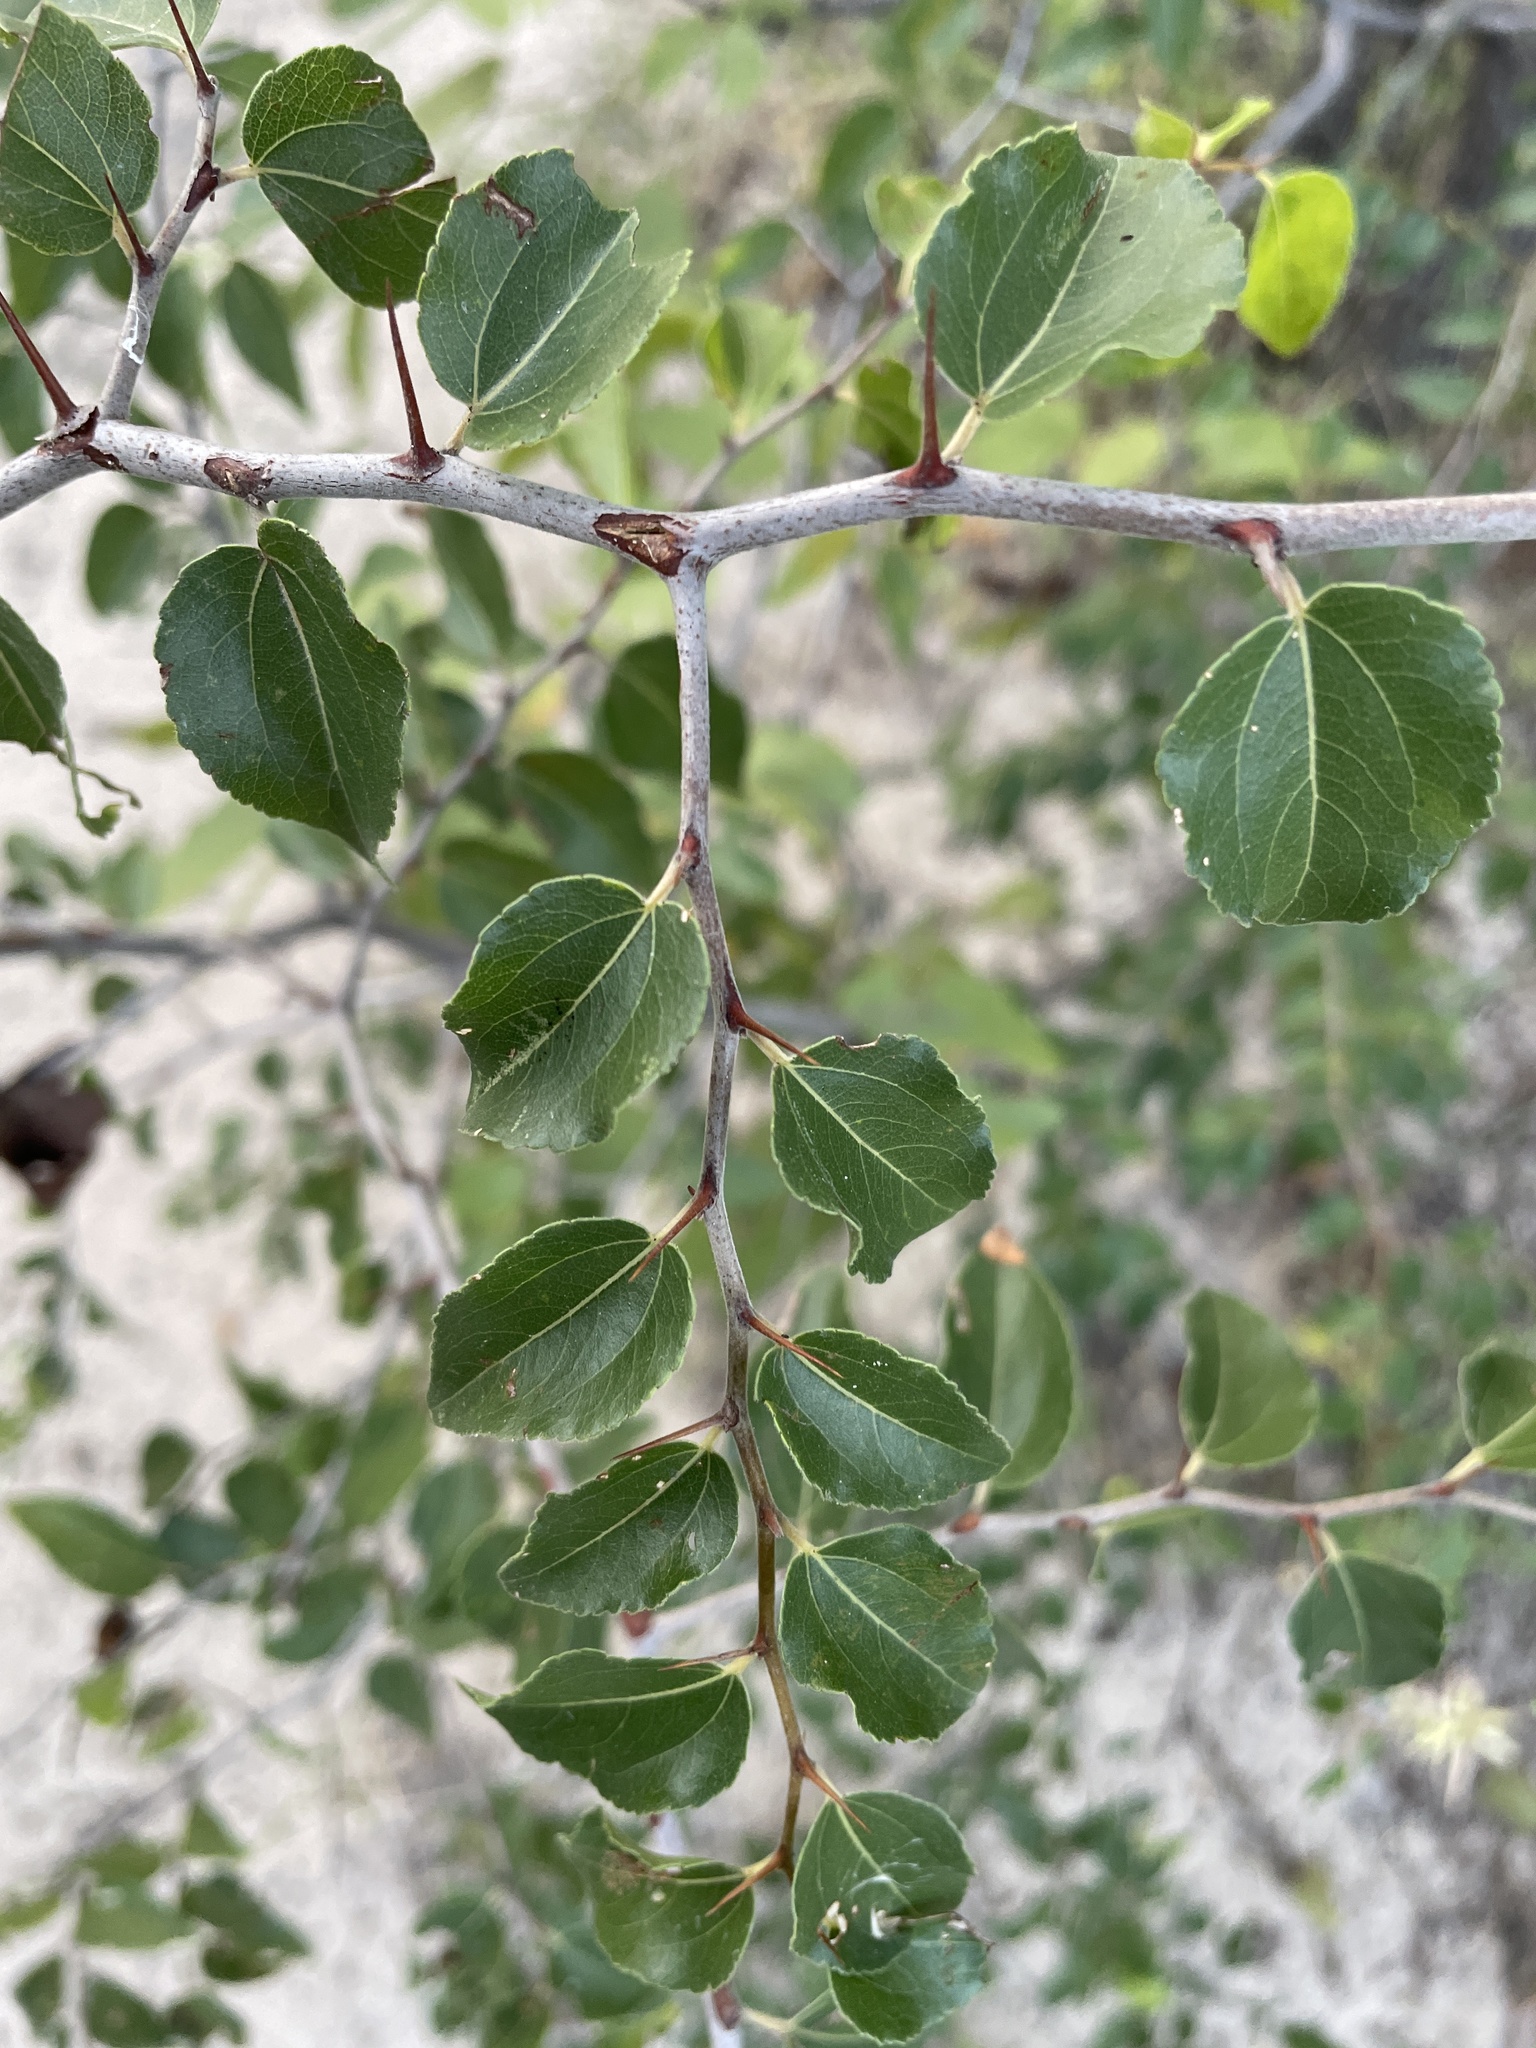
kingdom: Plantae
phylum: Tracheophyta
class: Magnoliopsida
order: Rosales
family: Rhamnaceae
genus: Ziziphus
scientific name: Ziziphus mucronata
